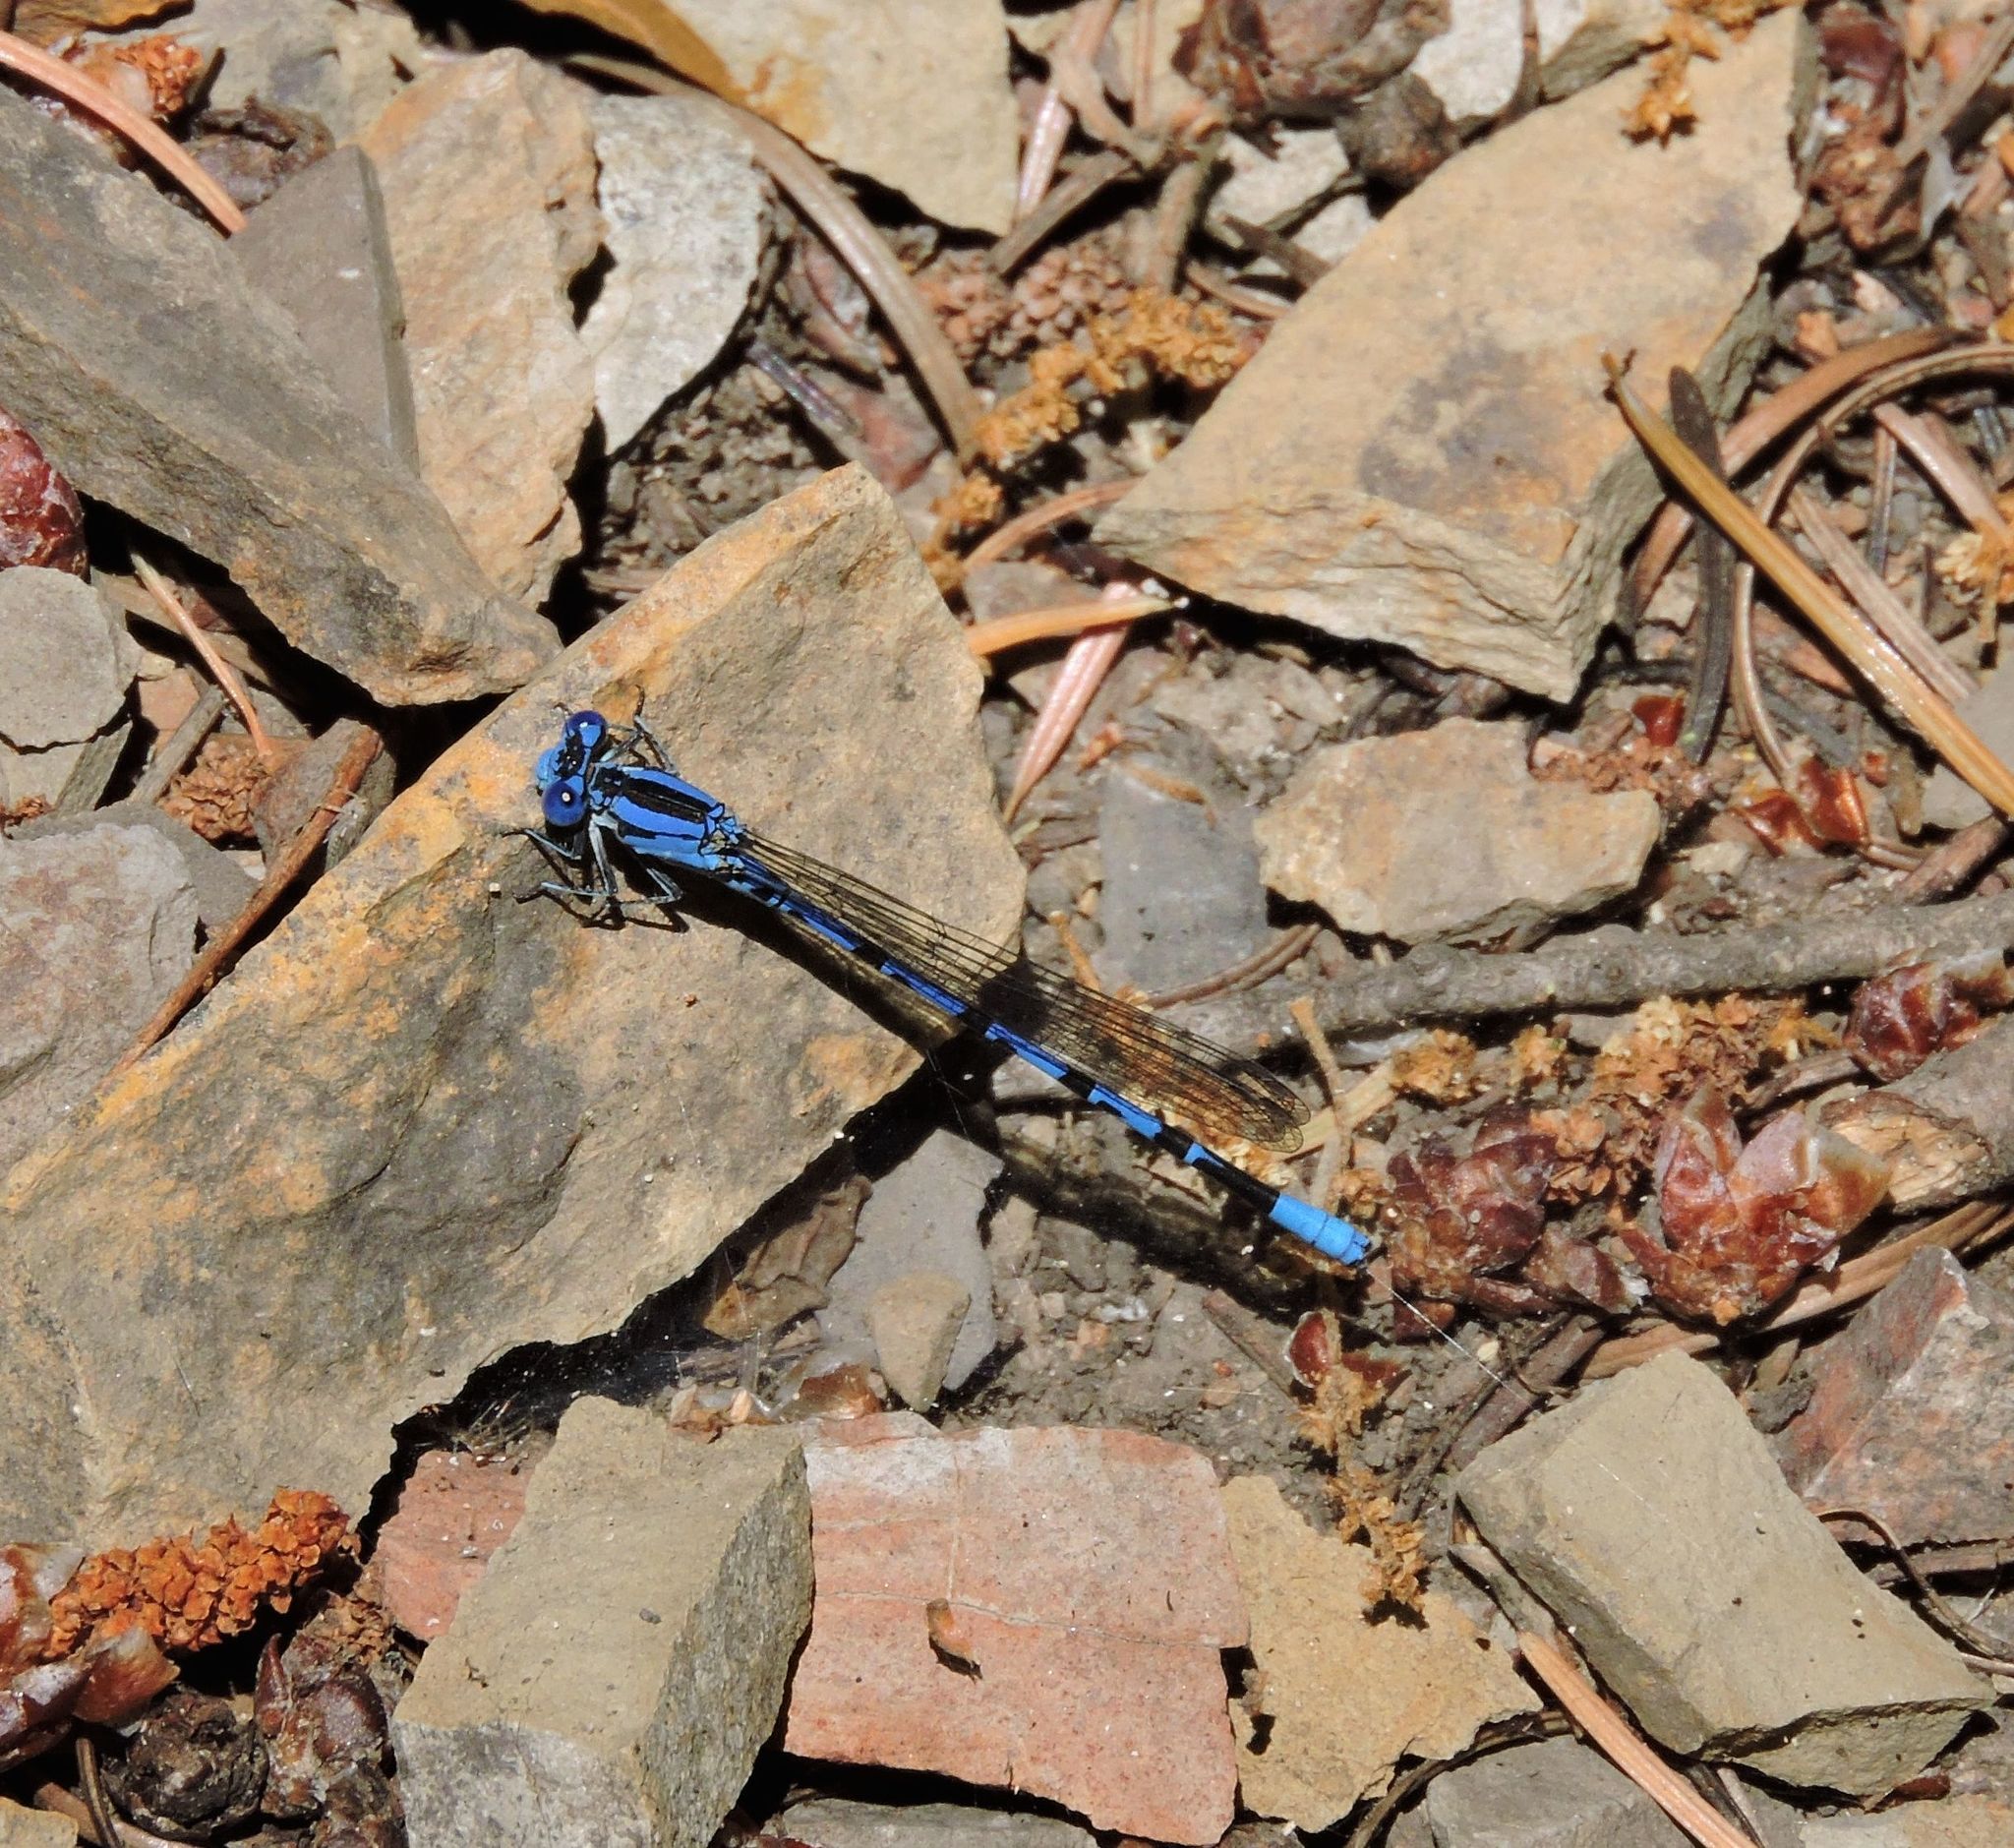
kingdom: Animalia
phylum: Arthropoda
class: Insecta
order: Odonata
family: Coenagrionidae
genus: Argia
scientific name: Argia vivida
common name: Vivid dancer
